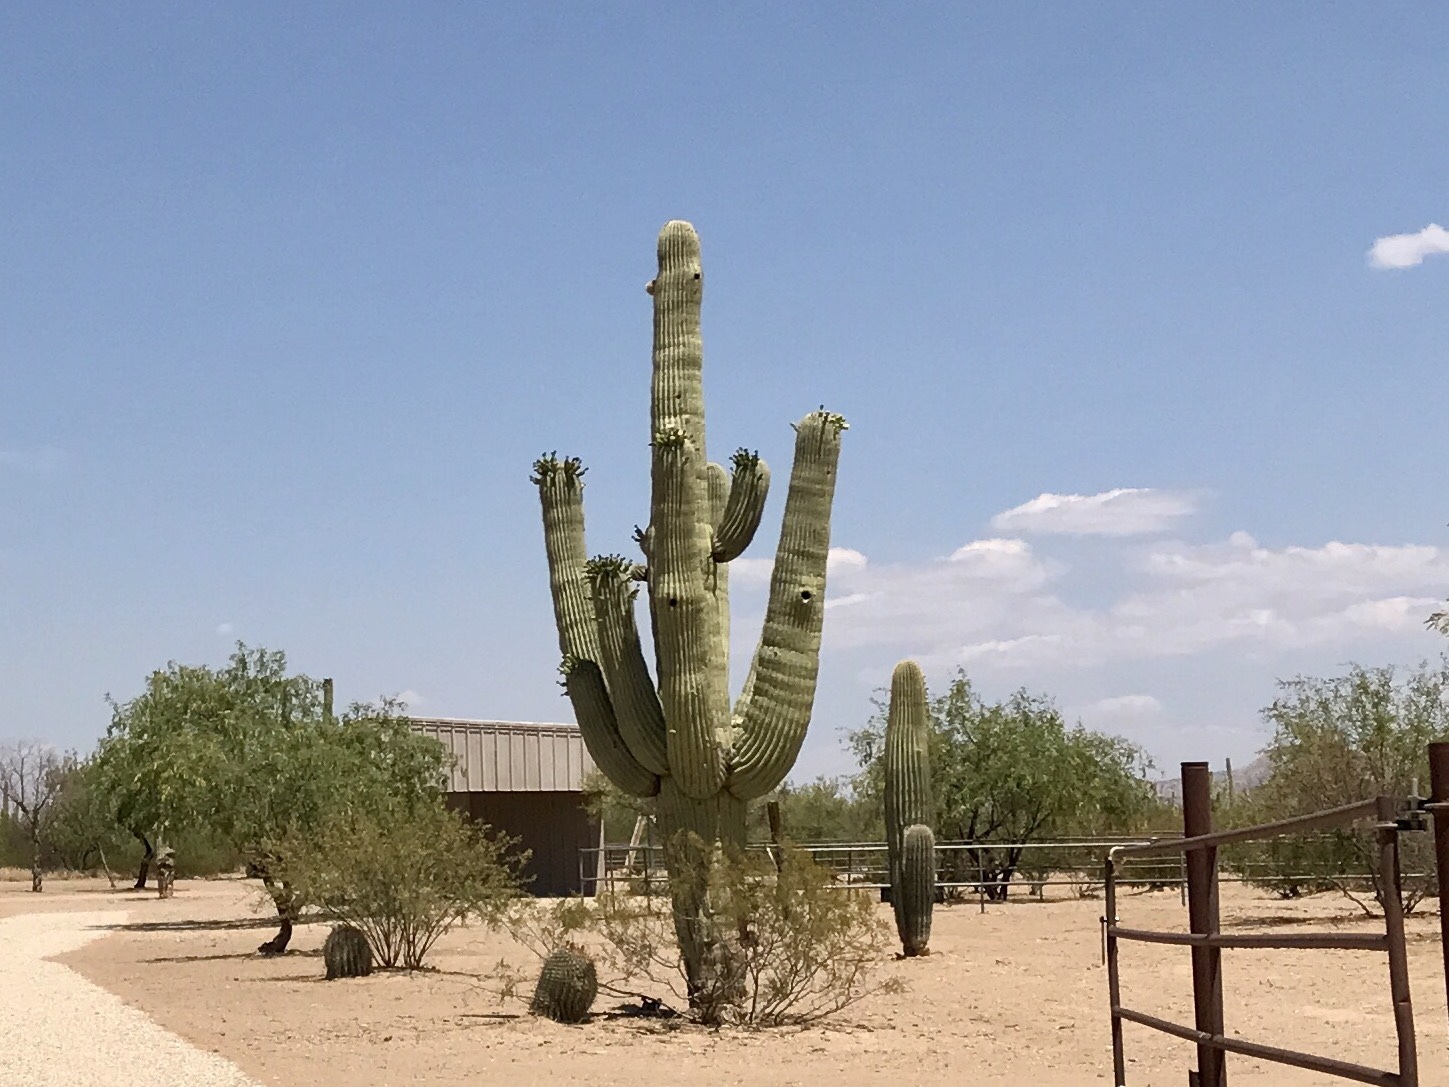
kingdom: Plantae
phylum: Tracheophyta
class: Magnoliopsida
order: Caryophyllales
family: Cactaceae
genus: Carnegiea
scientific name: Carnegiea gigantea
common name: Saguaro
